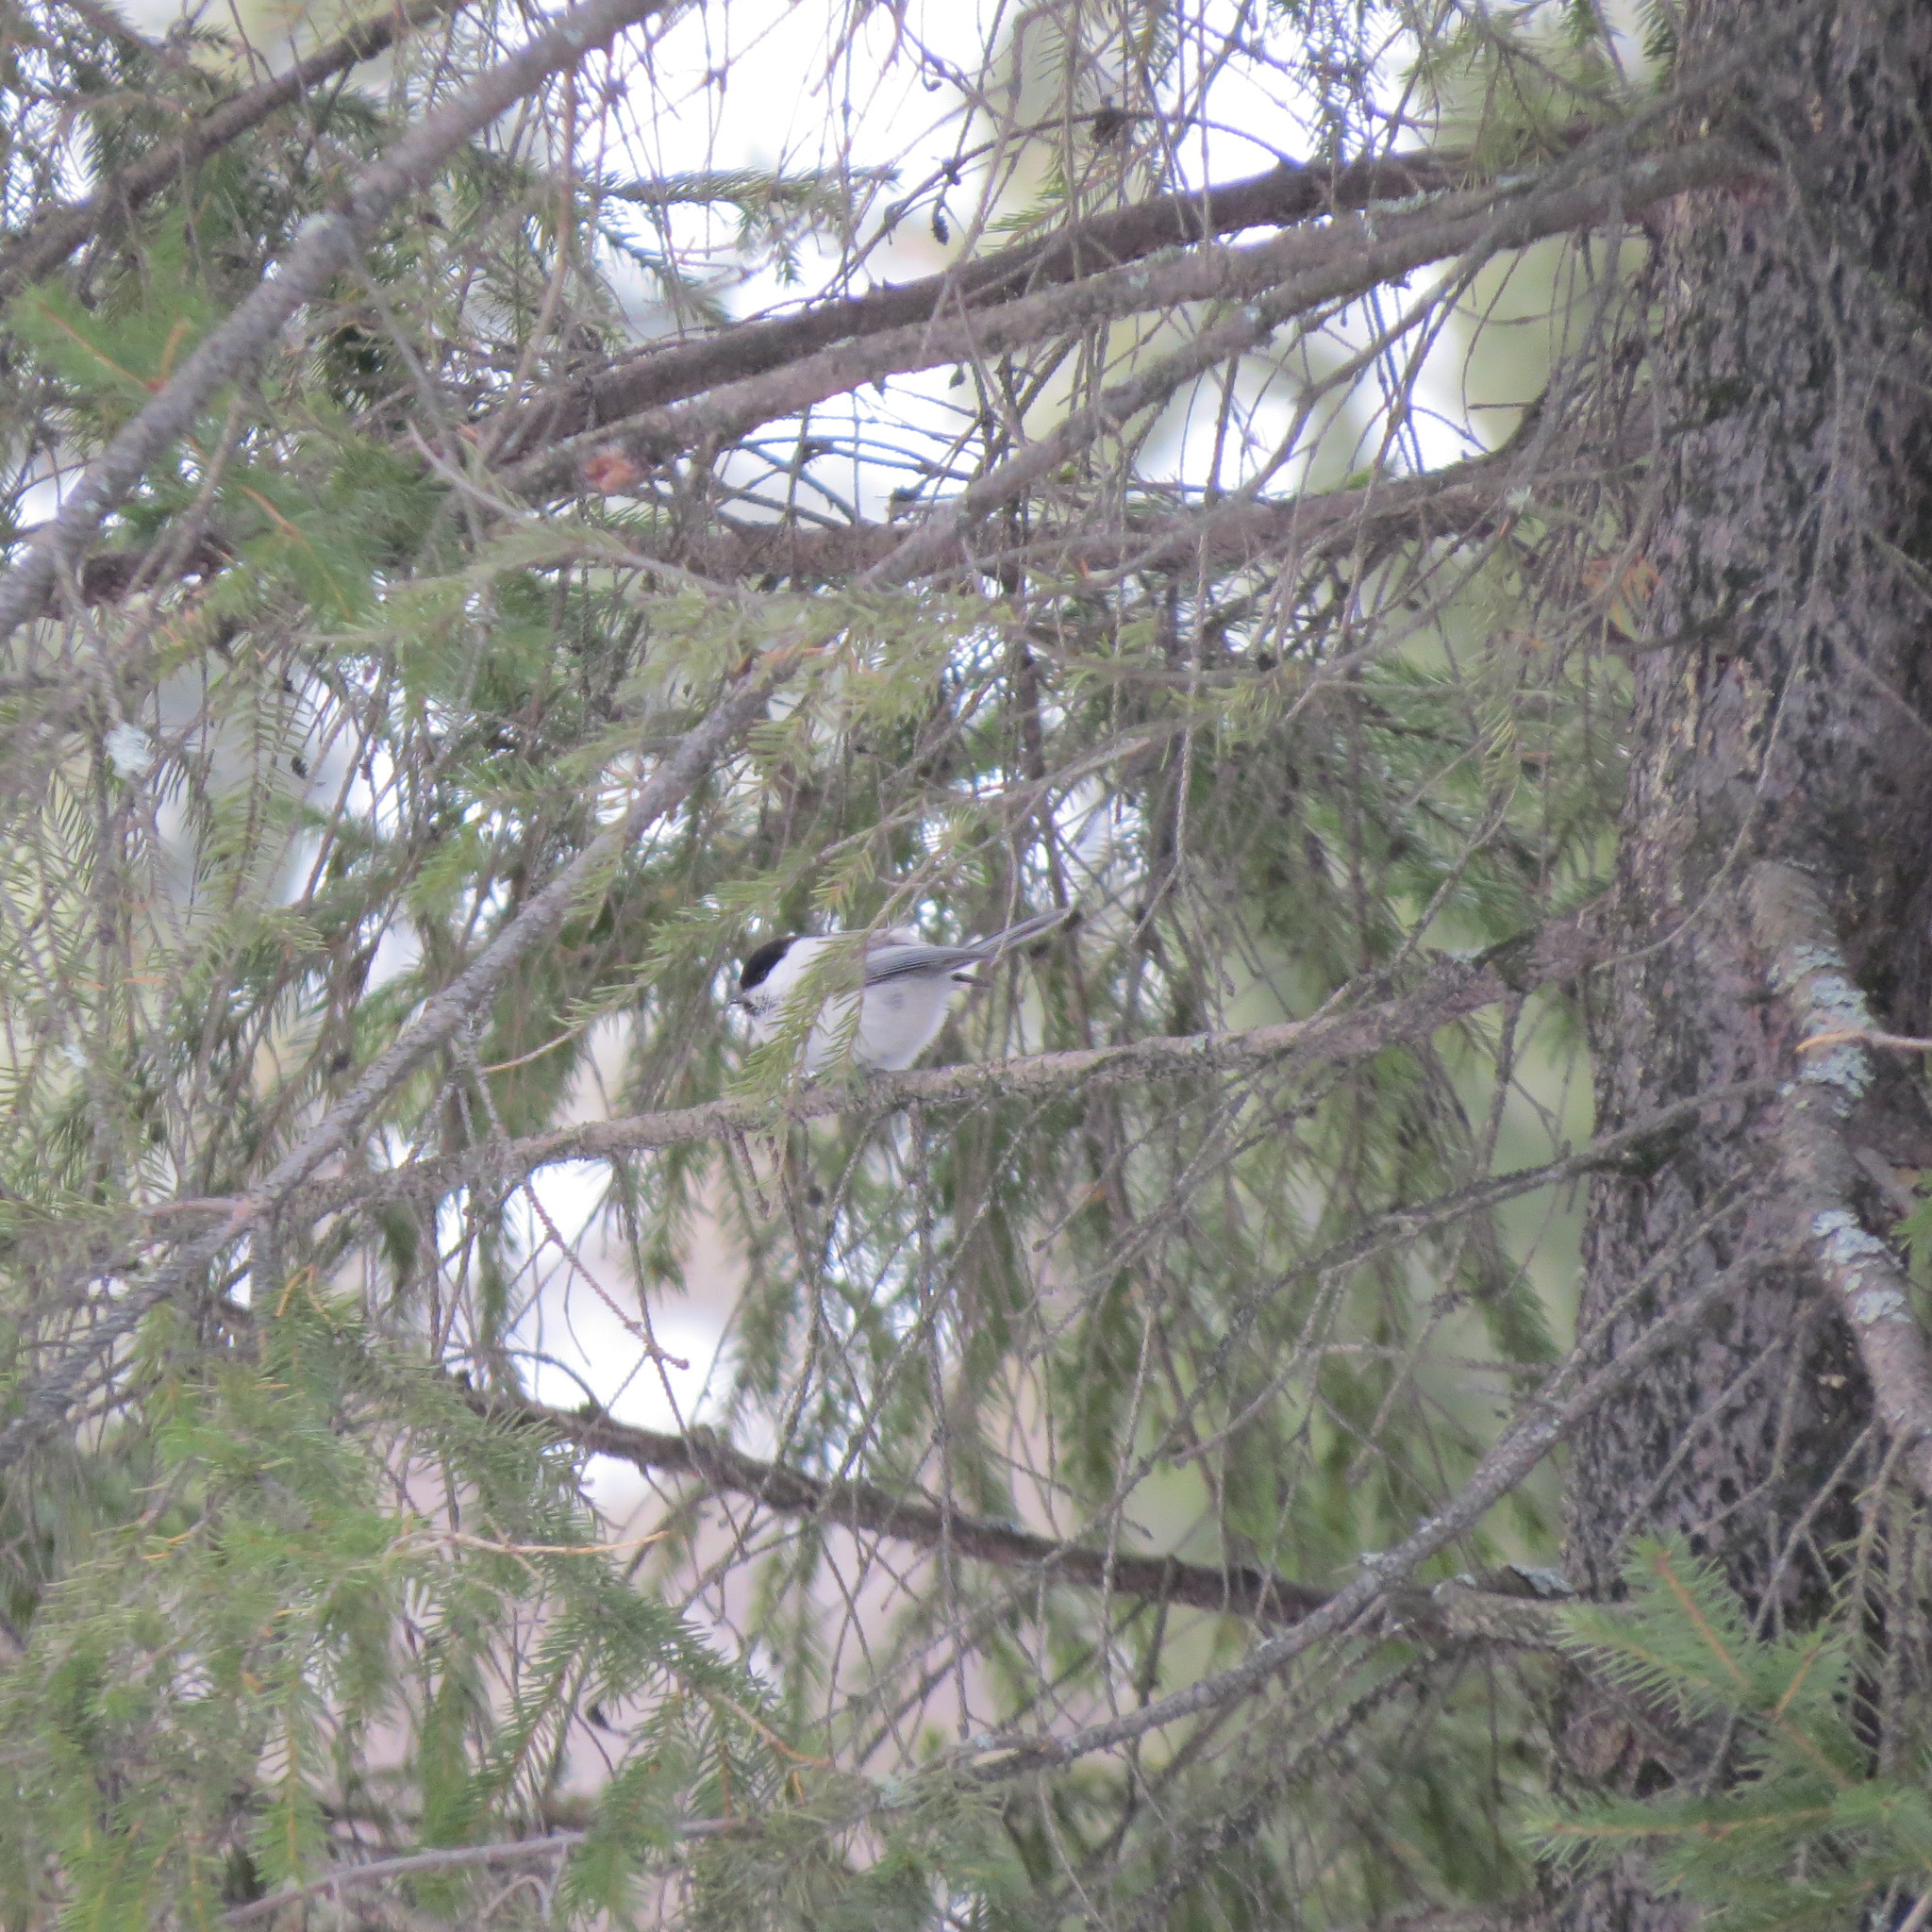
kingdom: Animalia
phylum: Chordata
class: Aves
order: Passeriformes
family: Paridae
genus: Poecile
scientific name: Poecile montanus
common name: Willow tit
